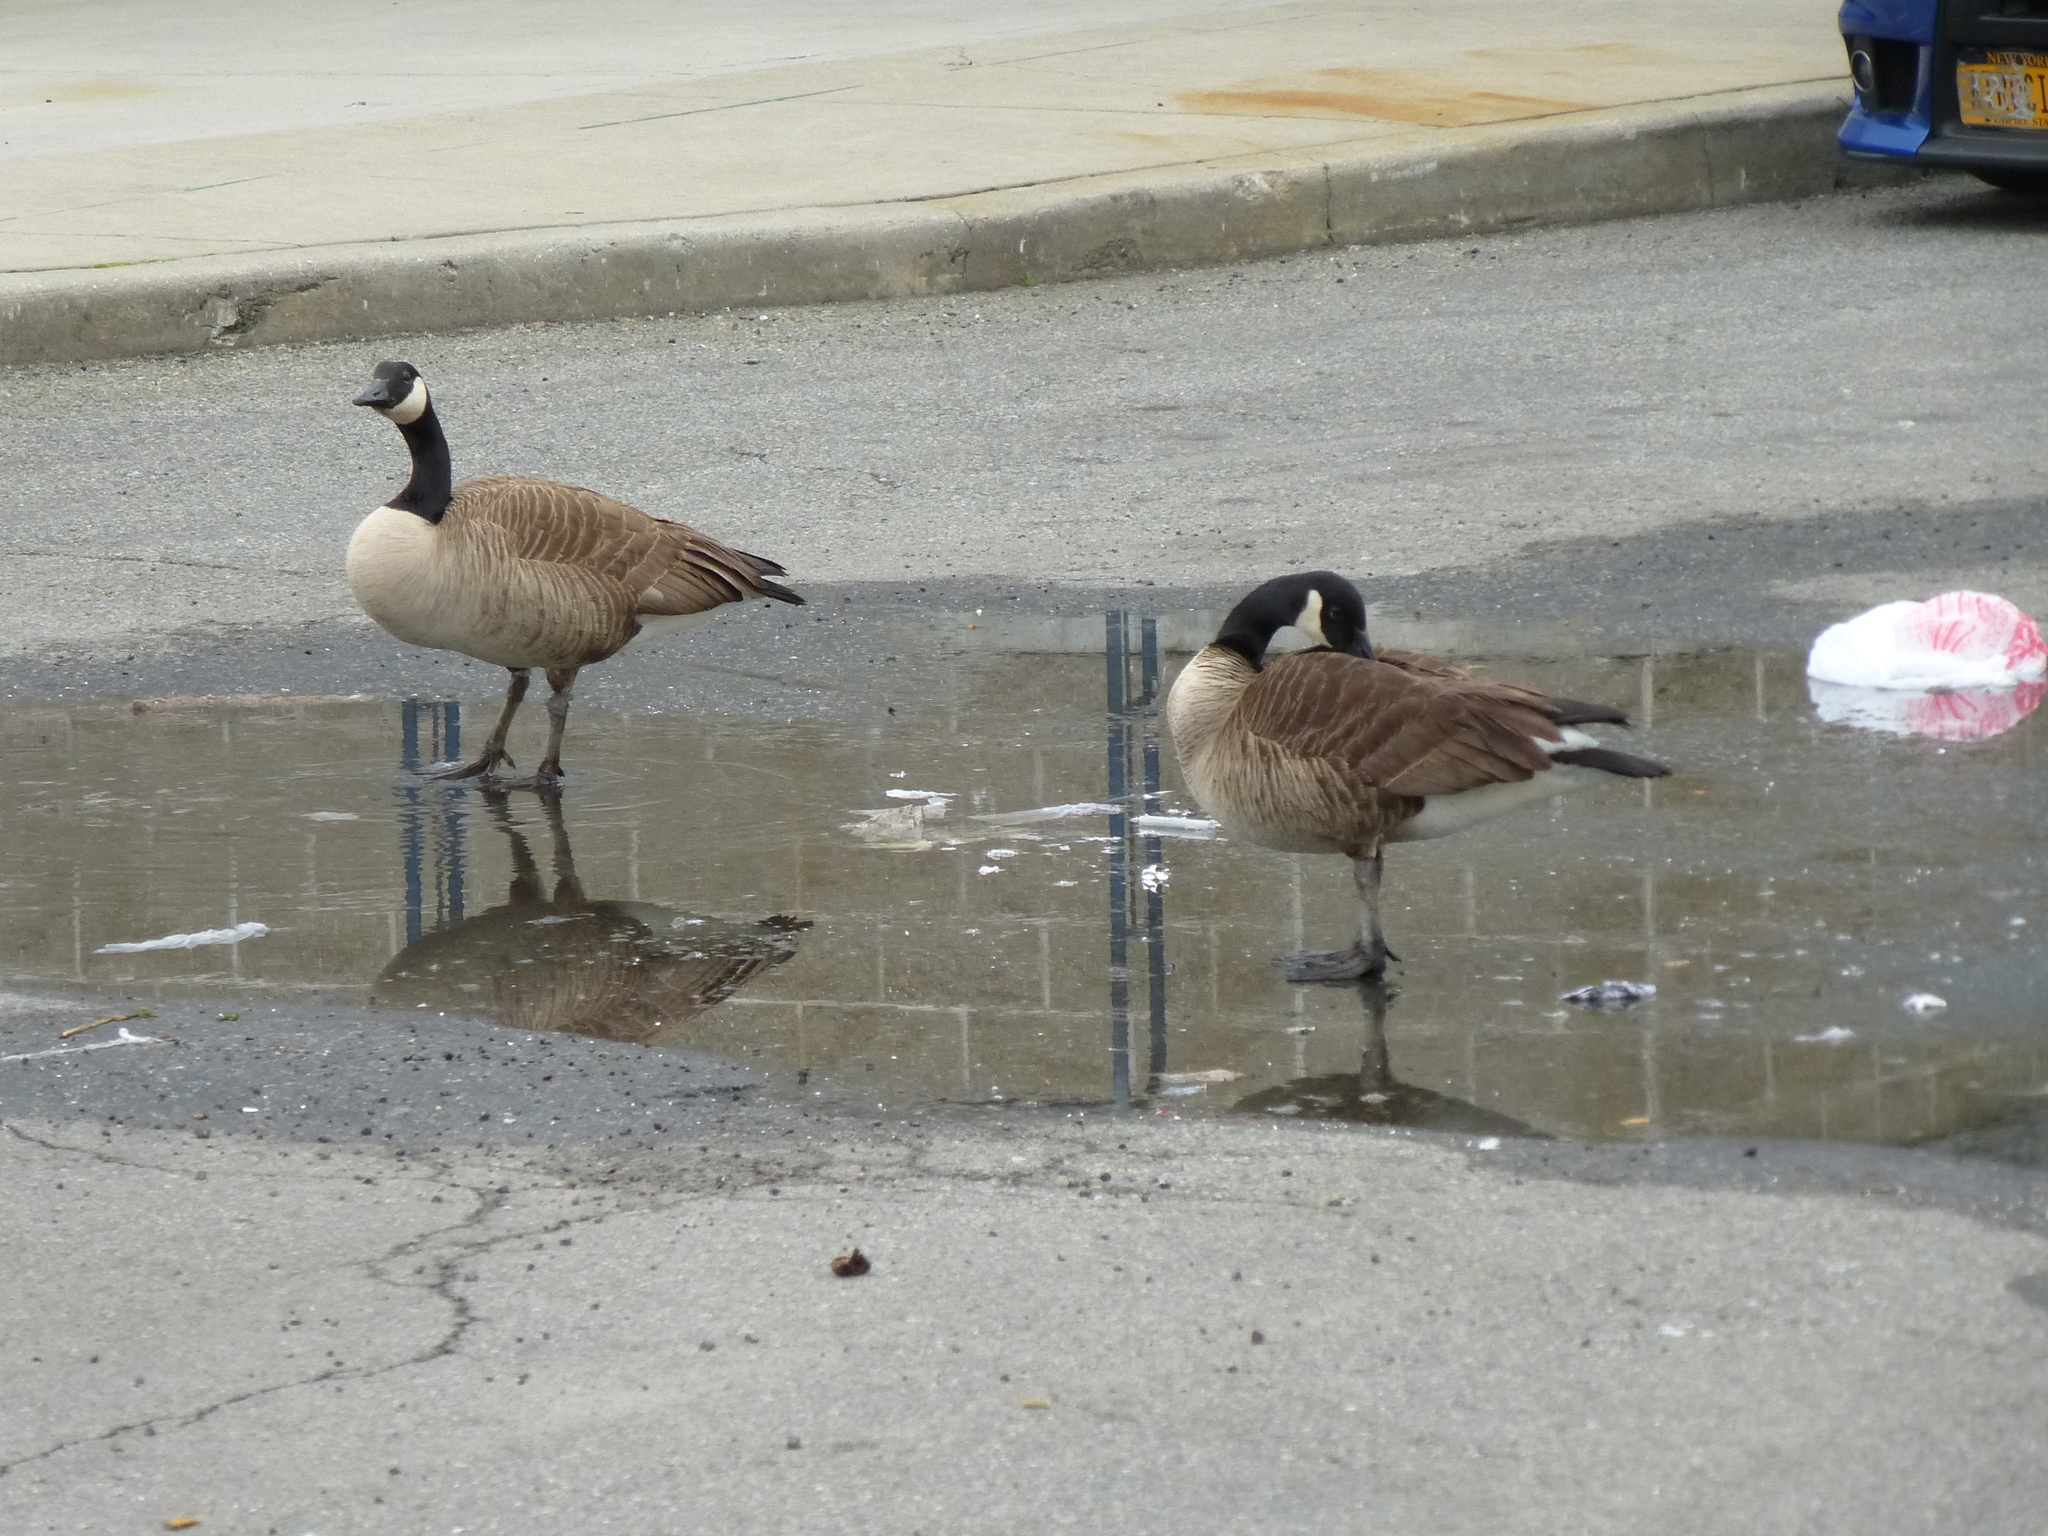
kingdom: Animalia
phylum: Chordata
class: Aves
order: Anseriformes
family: Anatidae
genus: Branta
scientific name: Branta canadensis
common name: Canada goose
